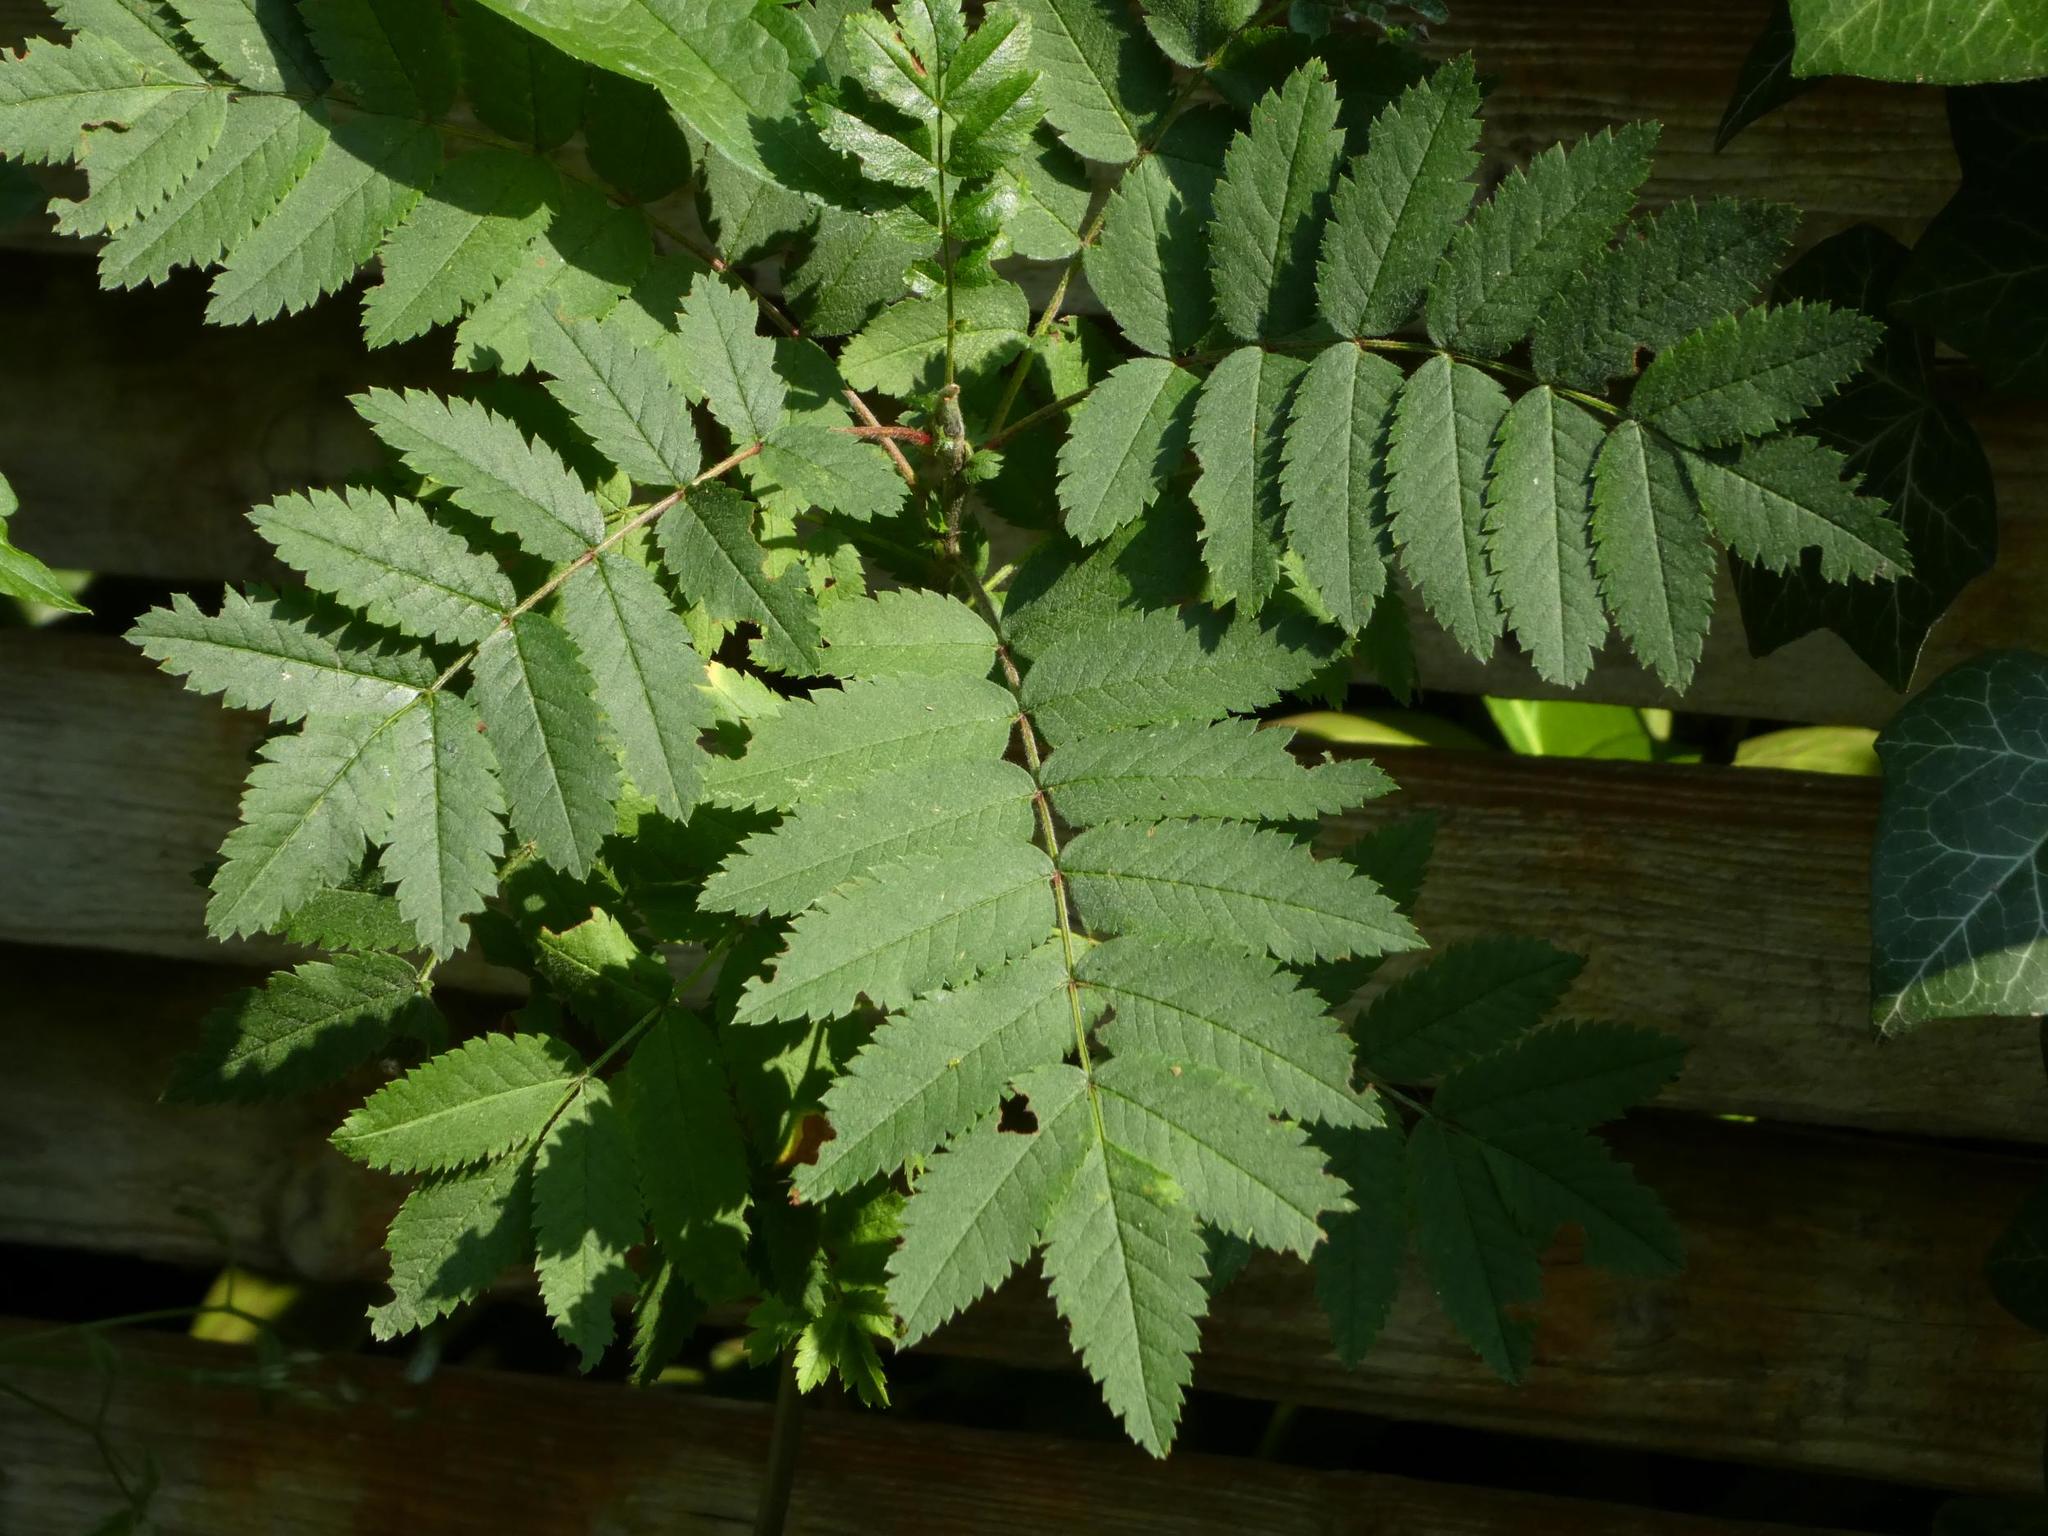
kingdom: Plantae
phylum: Tracheophyta
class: Magnoliopsida
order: Rosales
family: Rosaceae
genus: Sorbus
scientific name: Sorbus aucuparia
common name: Rowan
